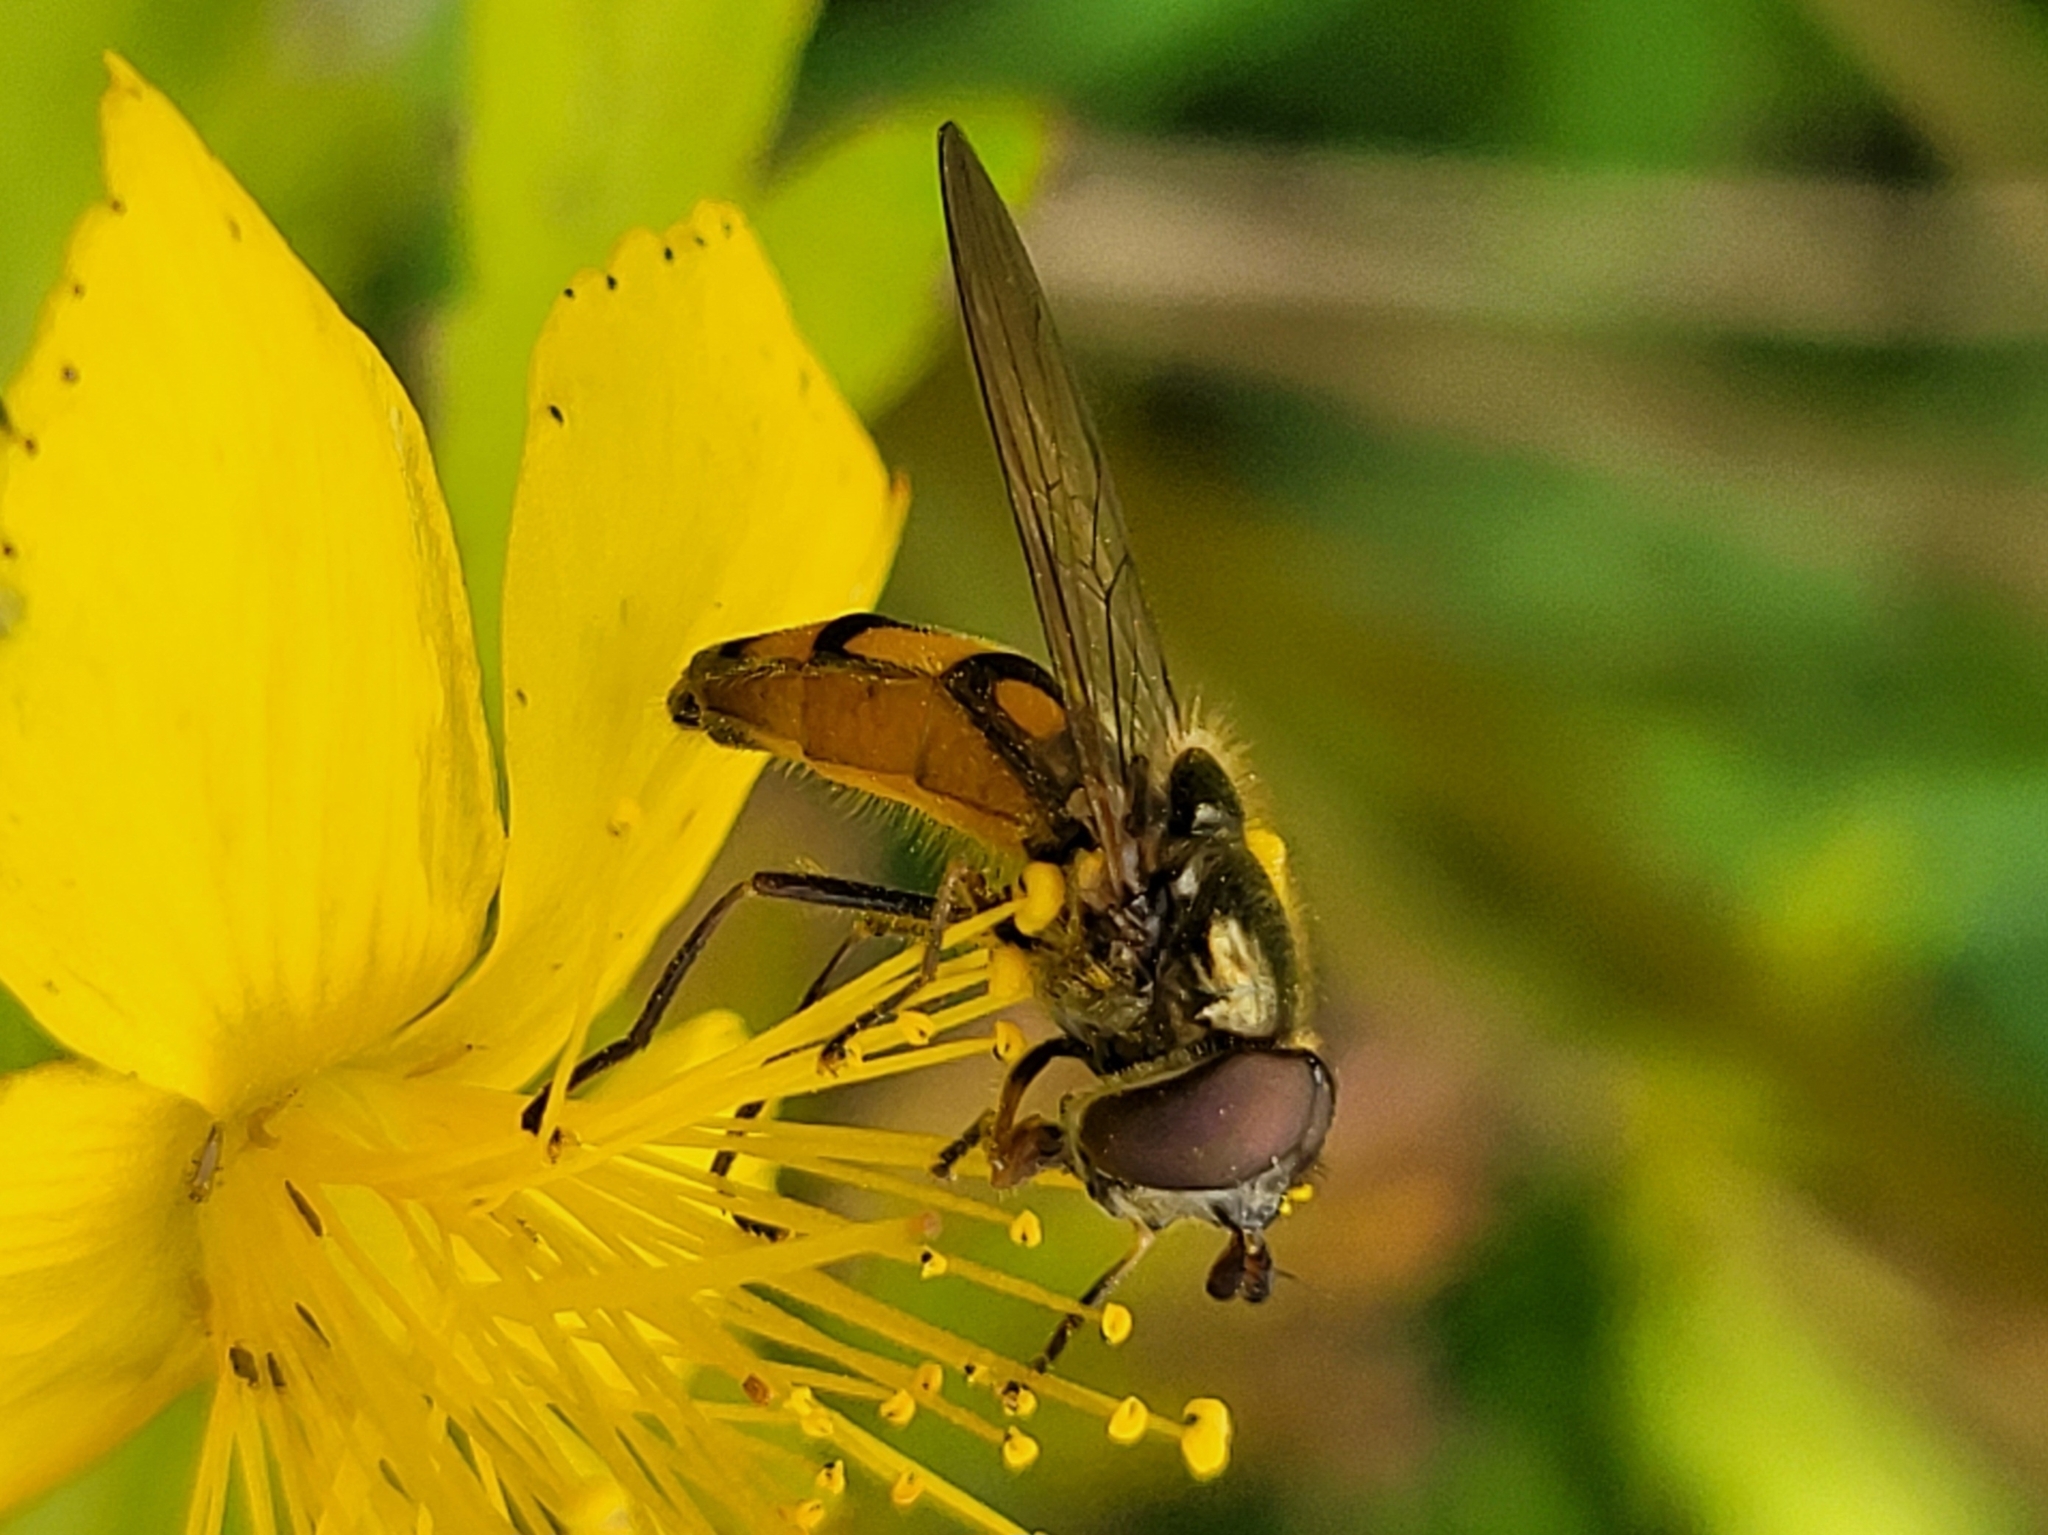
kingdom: Animalia
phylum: Arthropoda
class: Insecta
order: Diptera
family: Syrphidae
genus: Xanthandrus
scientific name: Xanthandrus comtus
